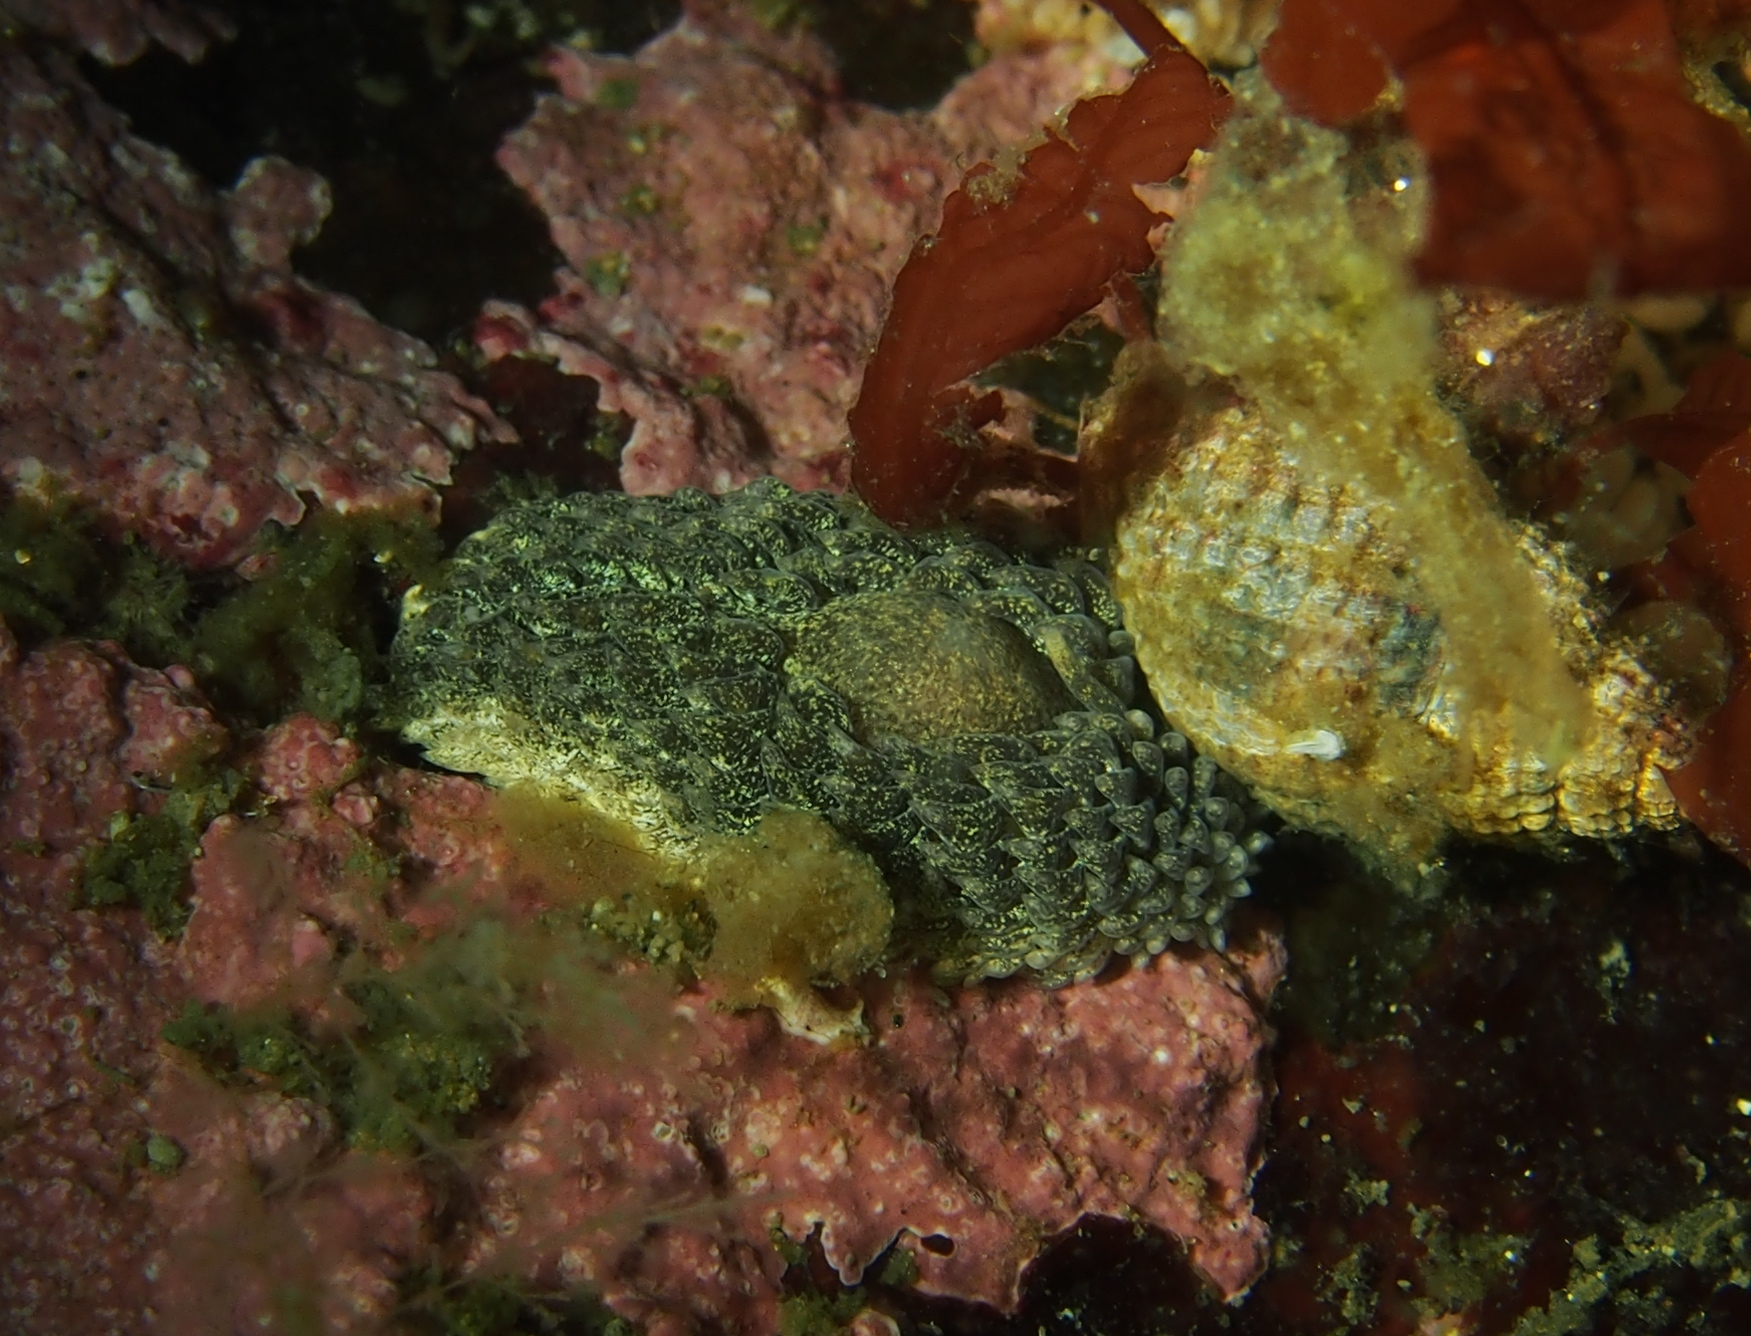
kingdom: Animalia
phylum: Mollusca
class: Gastropoda
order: Nudibranchia
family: Aeolidiidae
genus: Aeolidia
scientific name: Aeolidia papillosa
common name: Common grey sea slug
